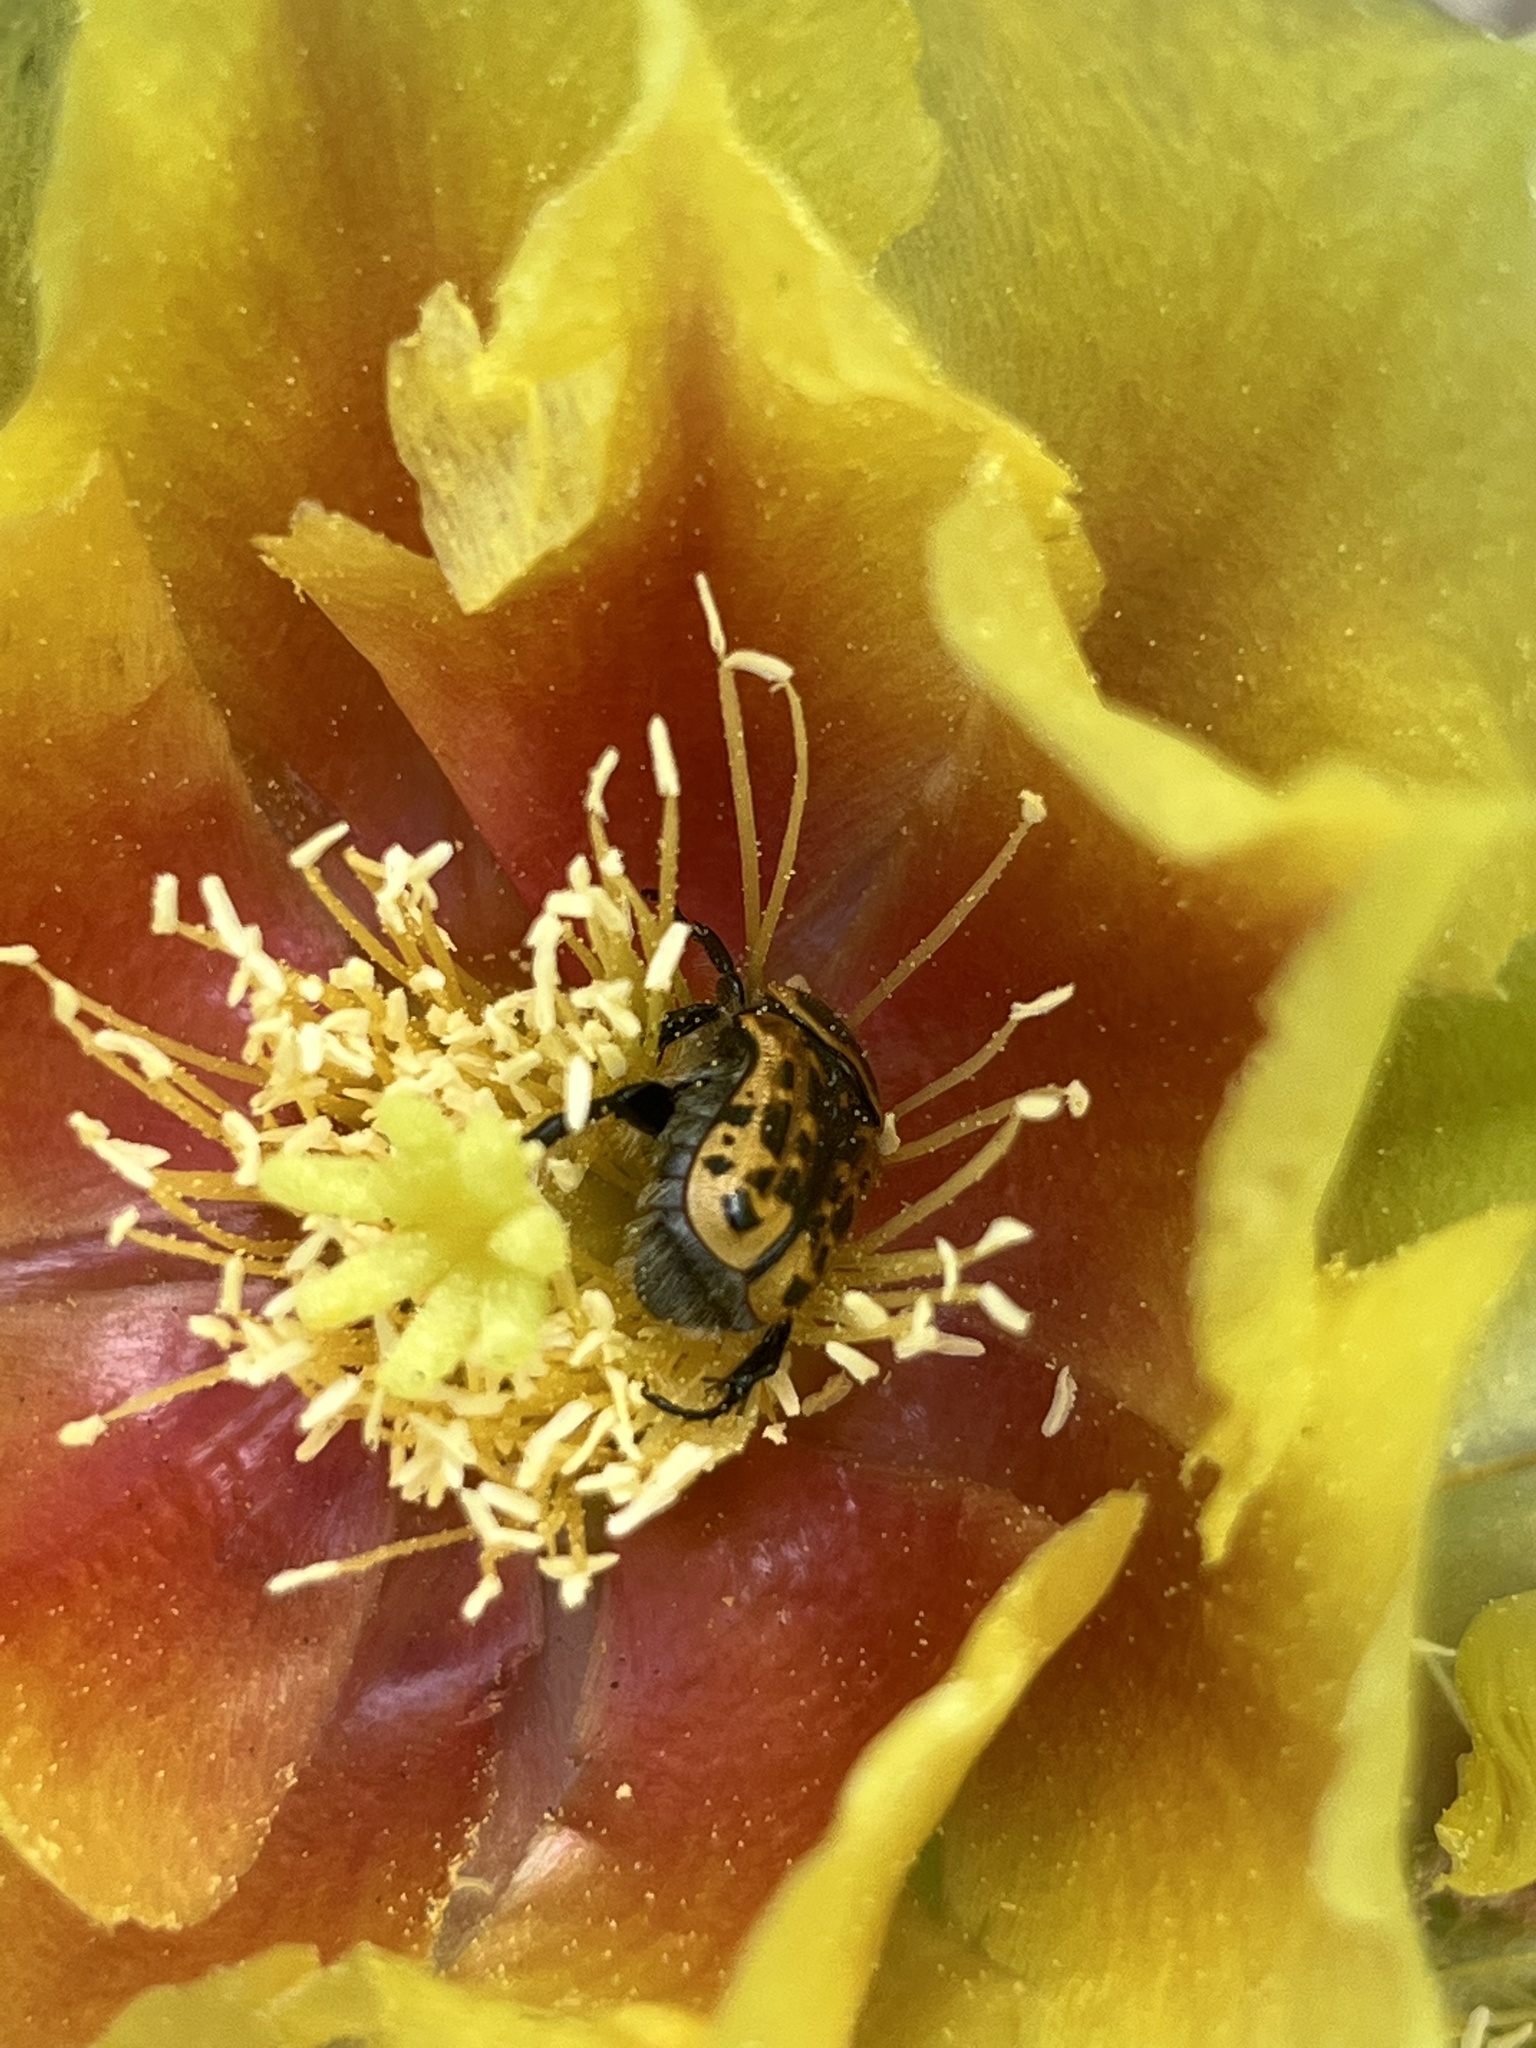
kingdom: Animalia
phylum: Arthropoda
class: Insecta
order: Coleoptera
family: Scarabaeidae
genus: Euphoria
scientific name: Euphoria kernii
